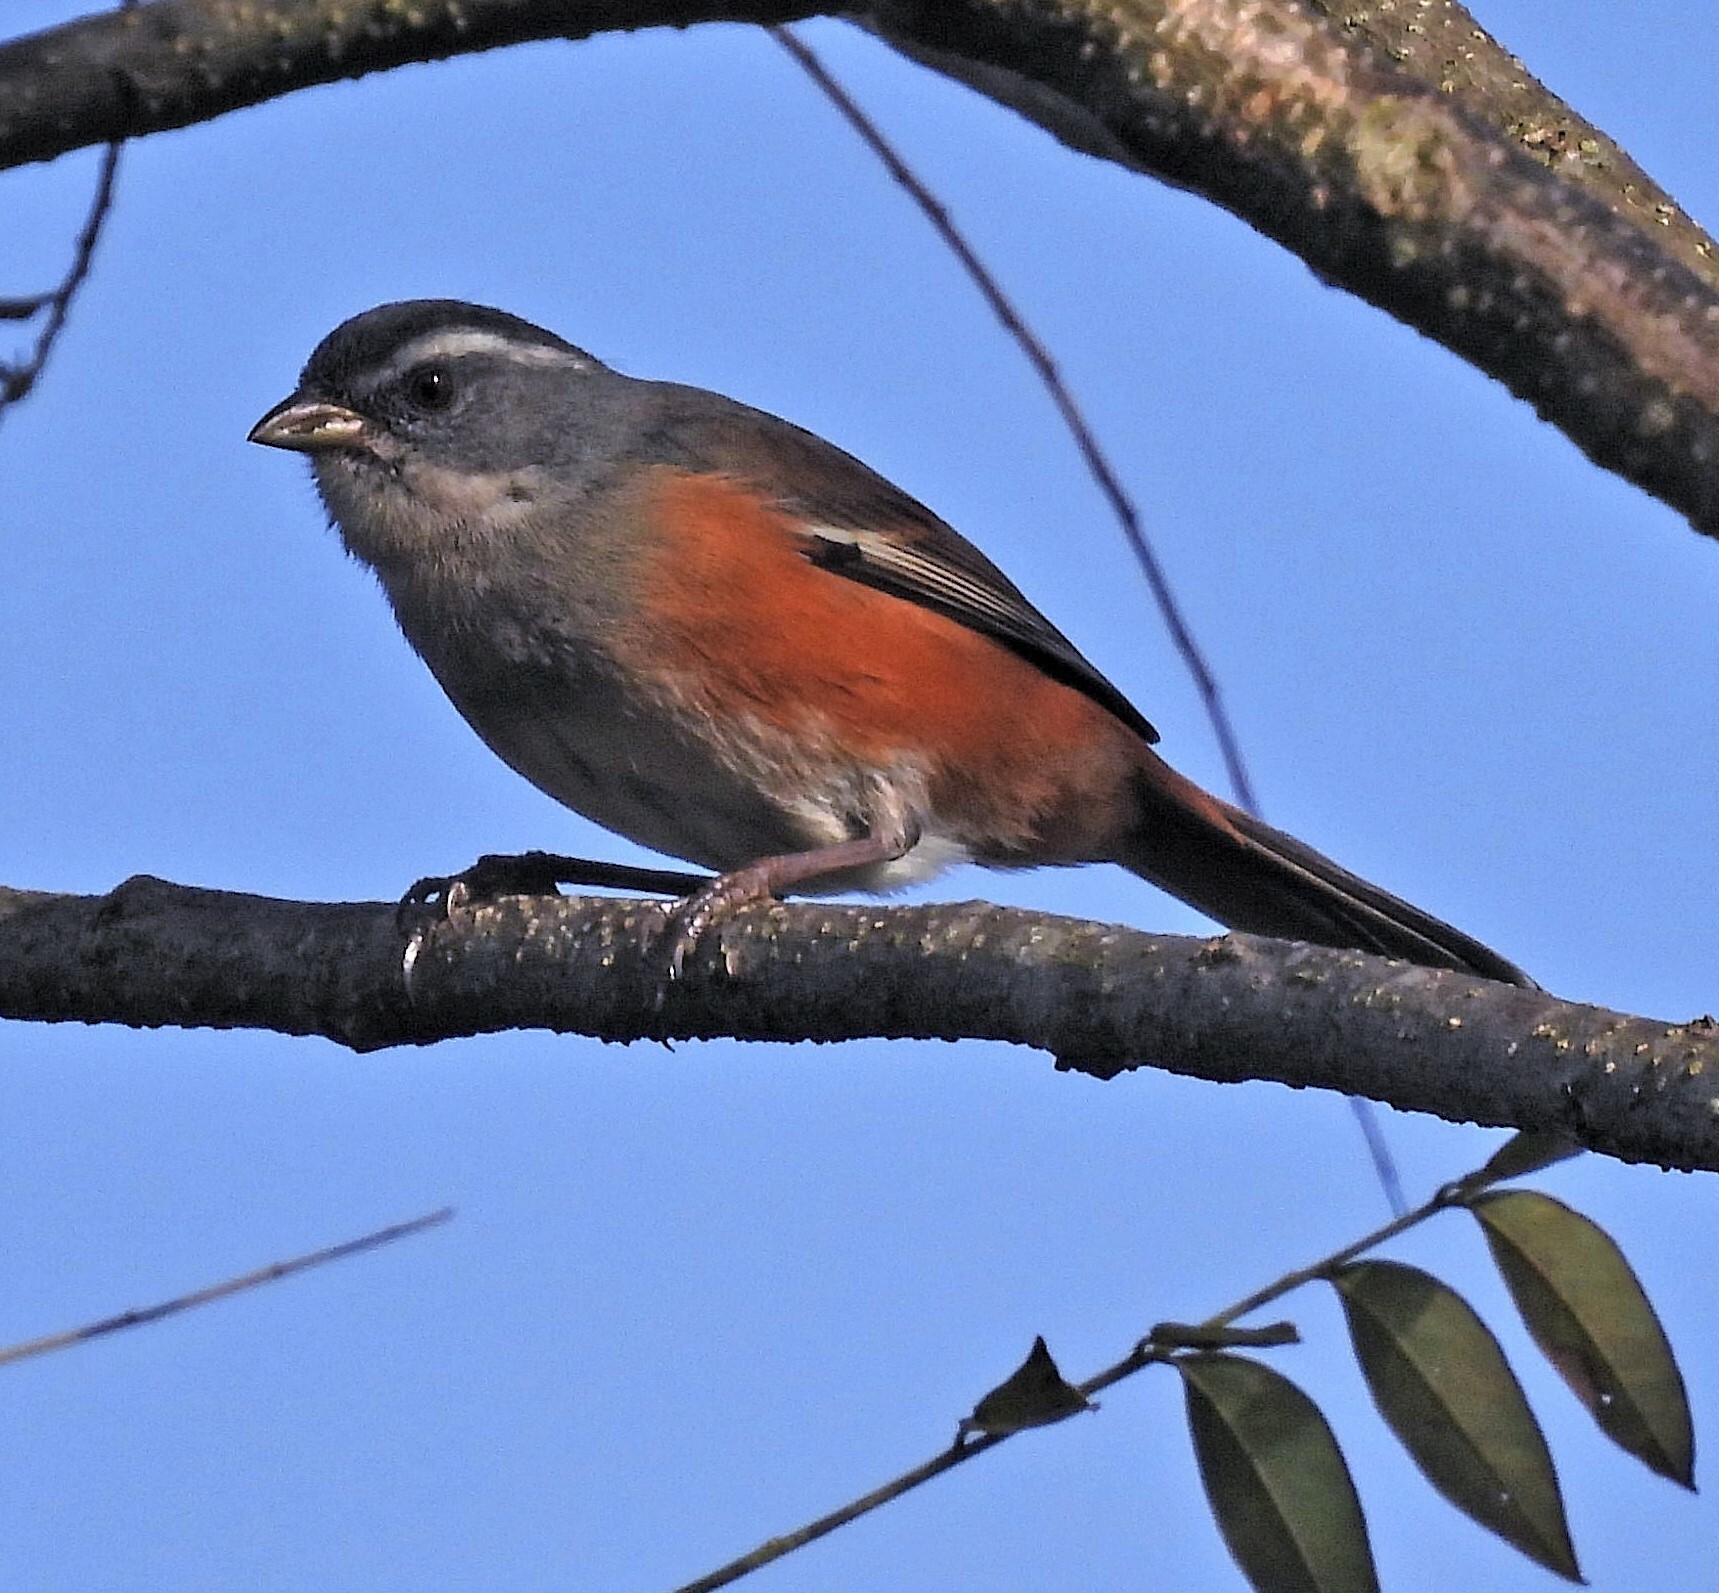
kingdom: Animalia
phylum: Chordata
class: Aves
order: Passeriformes
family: Thraupidae
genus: Microspingus
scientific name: Microspingus cabanisi
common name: Gray-throated warbling-finch
